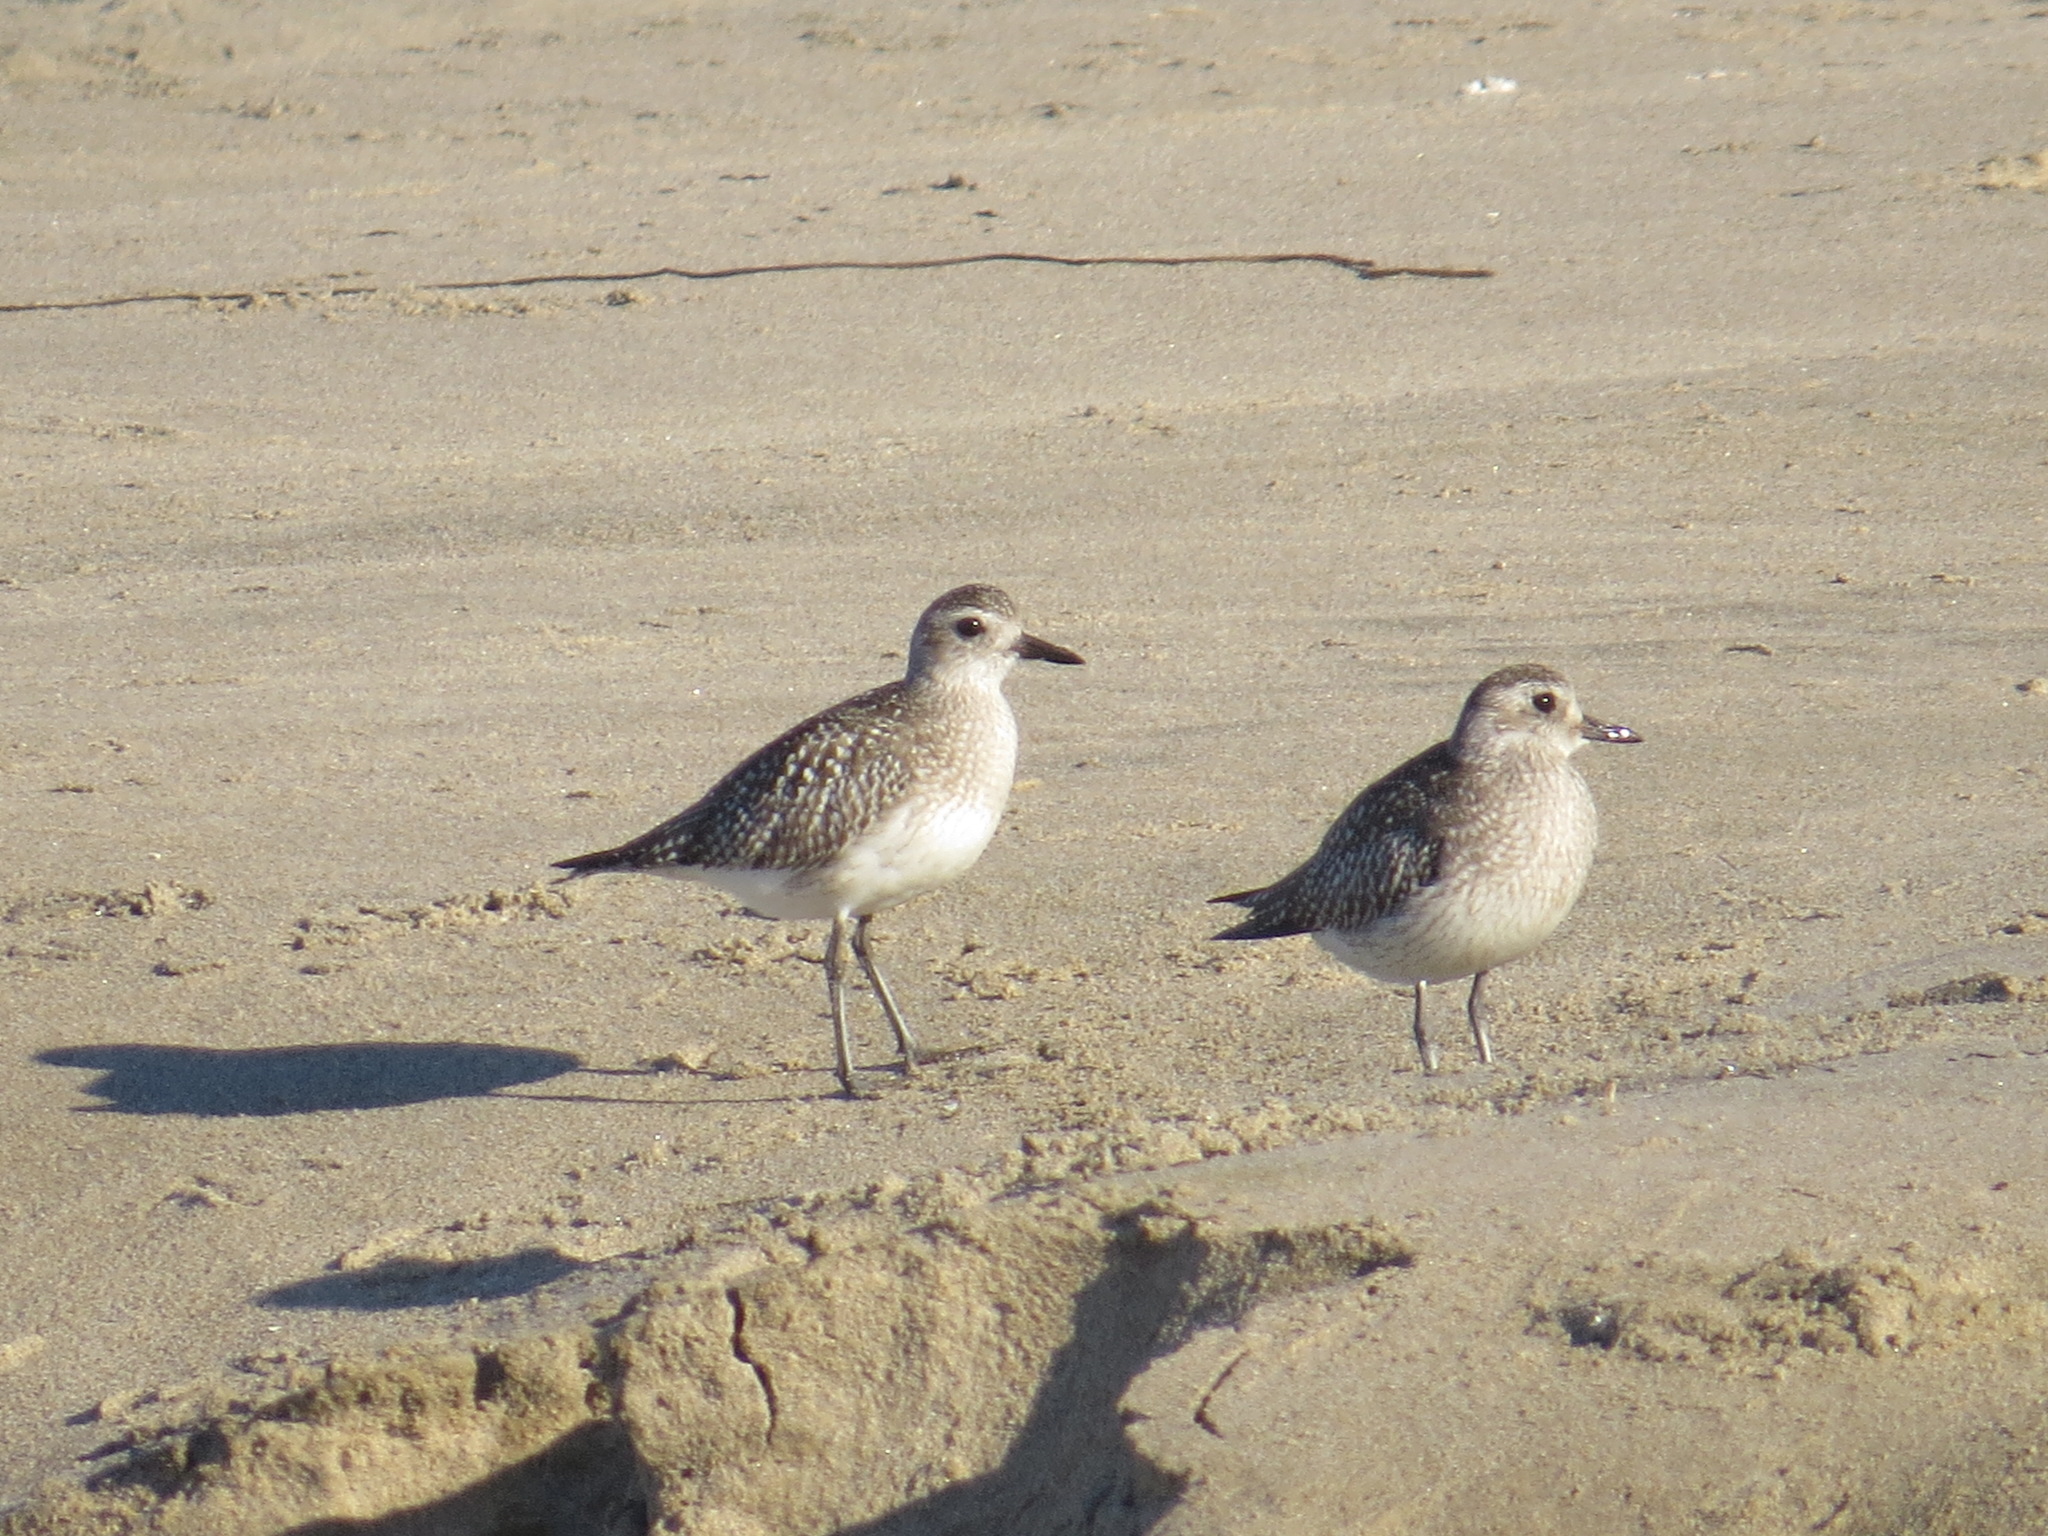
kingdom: Animalia
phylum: Chordata
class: Aves
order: Charadriiformes
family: Charadriidae
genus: Pluvialis
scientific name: Pluvialis squatarola
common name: Grey plover
